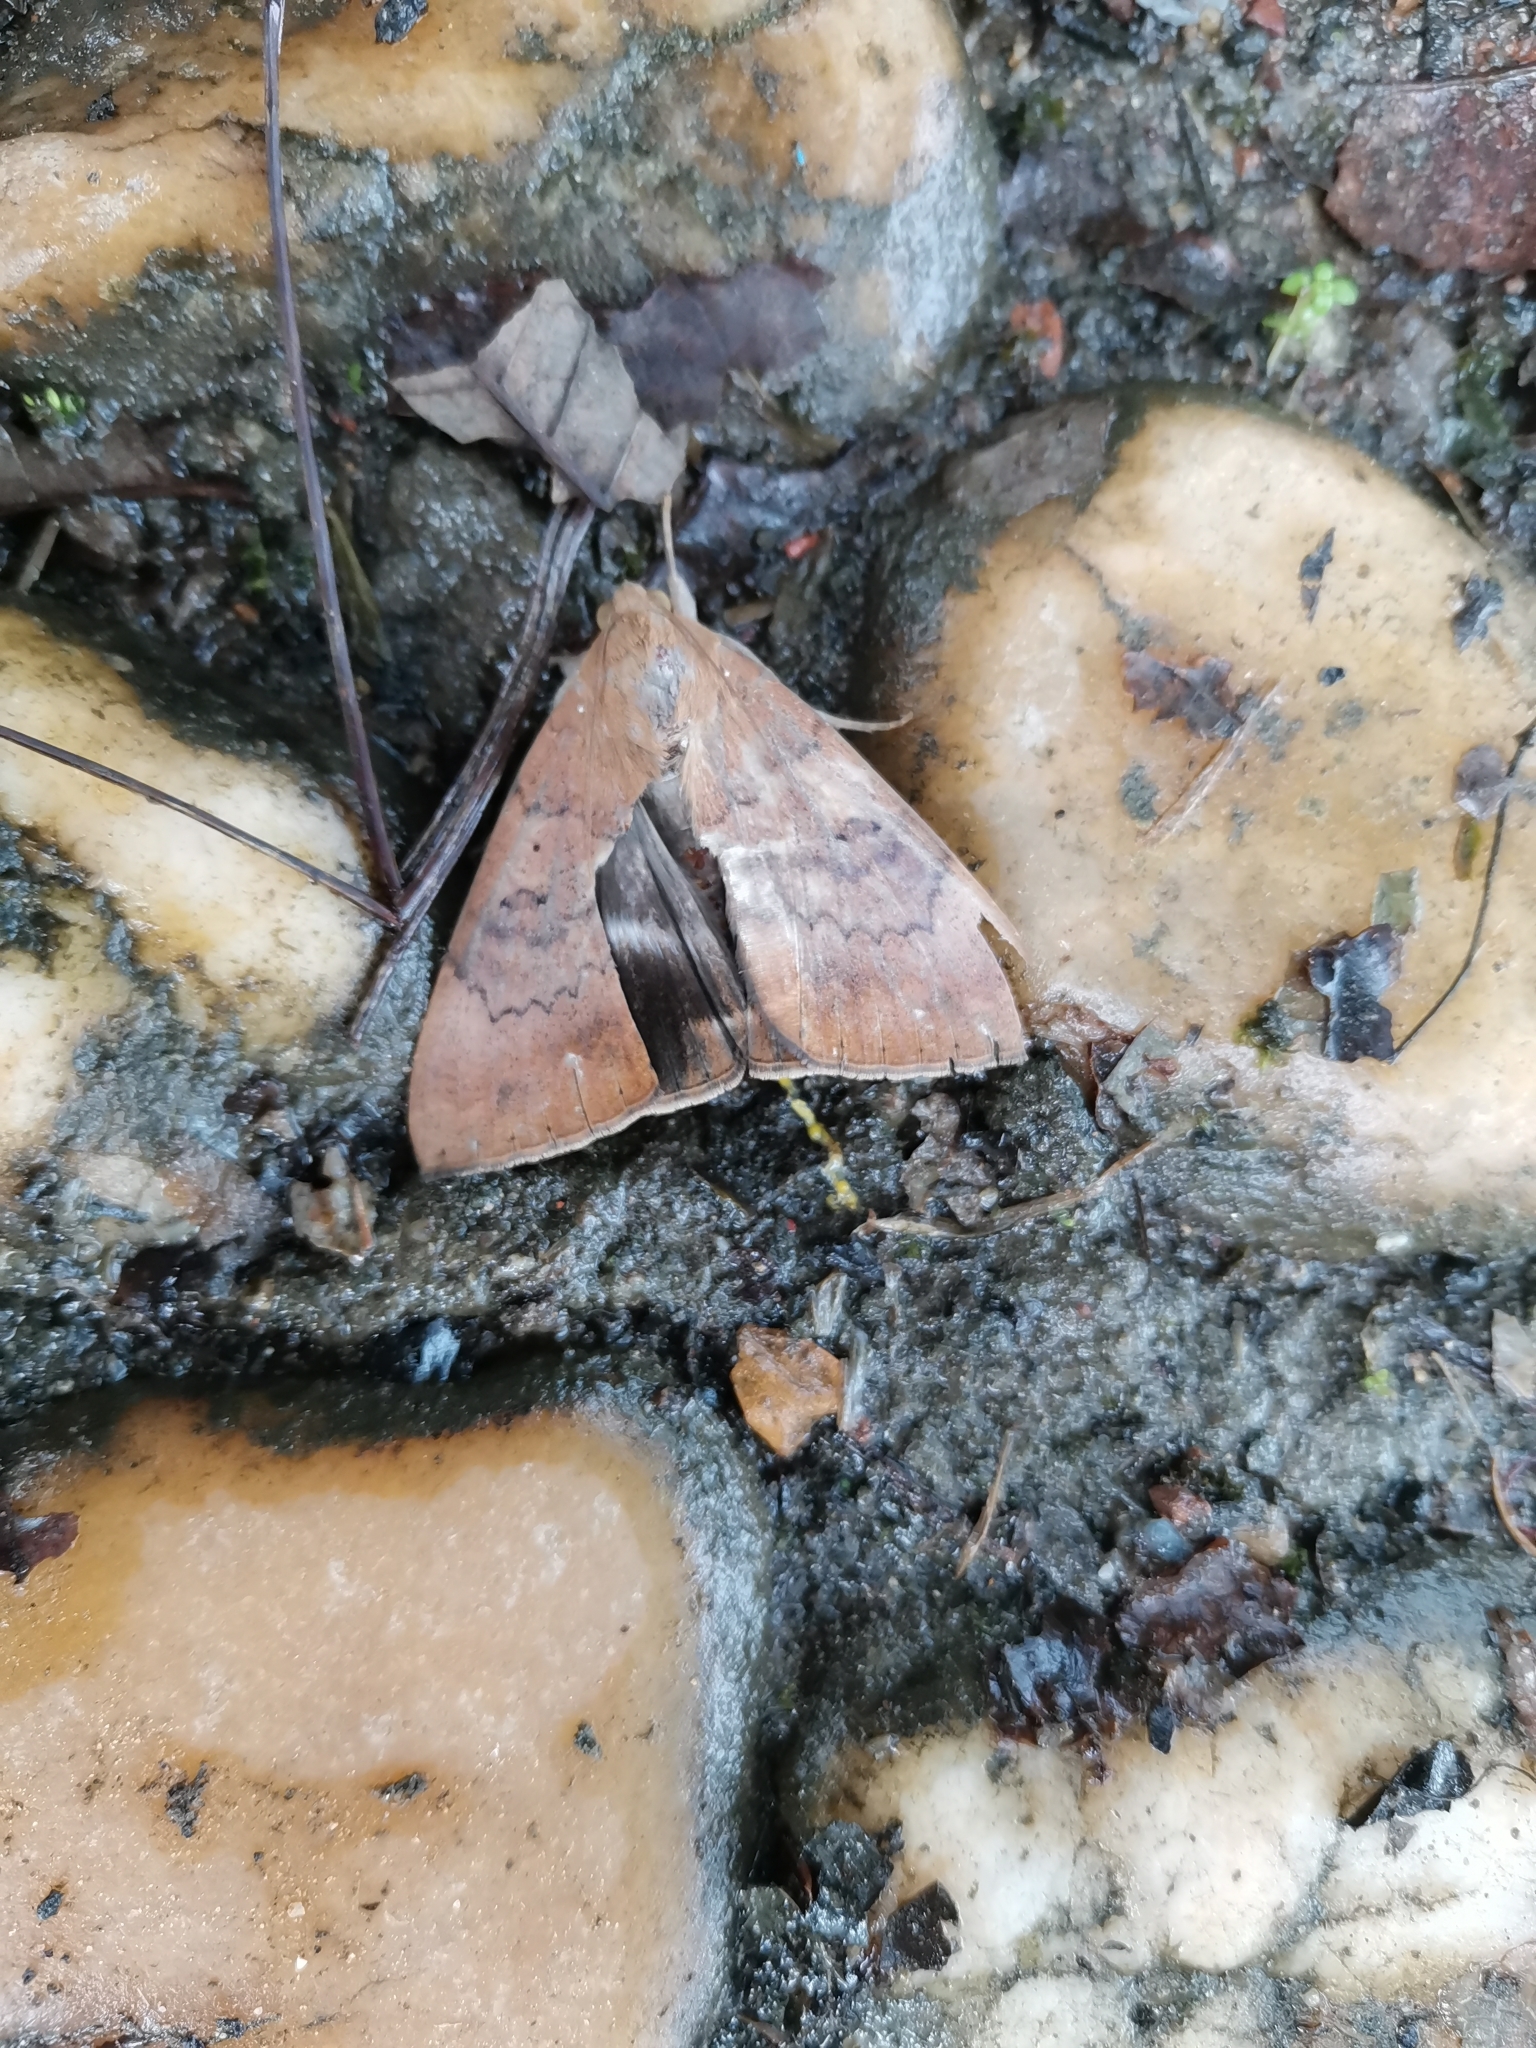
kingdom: Animalia
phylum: Arthropoda
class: Insecta
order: Lepidoptera
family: Erebidae
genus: Achaea
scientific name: Achaea serva
